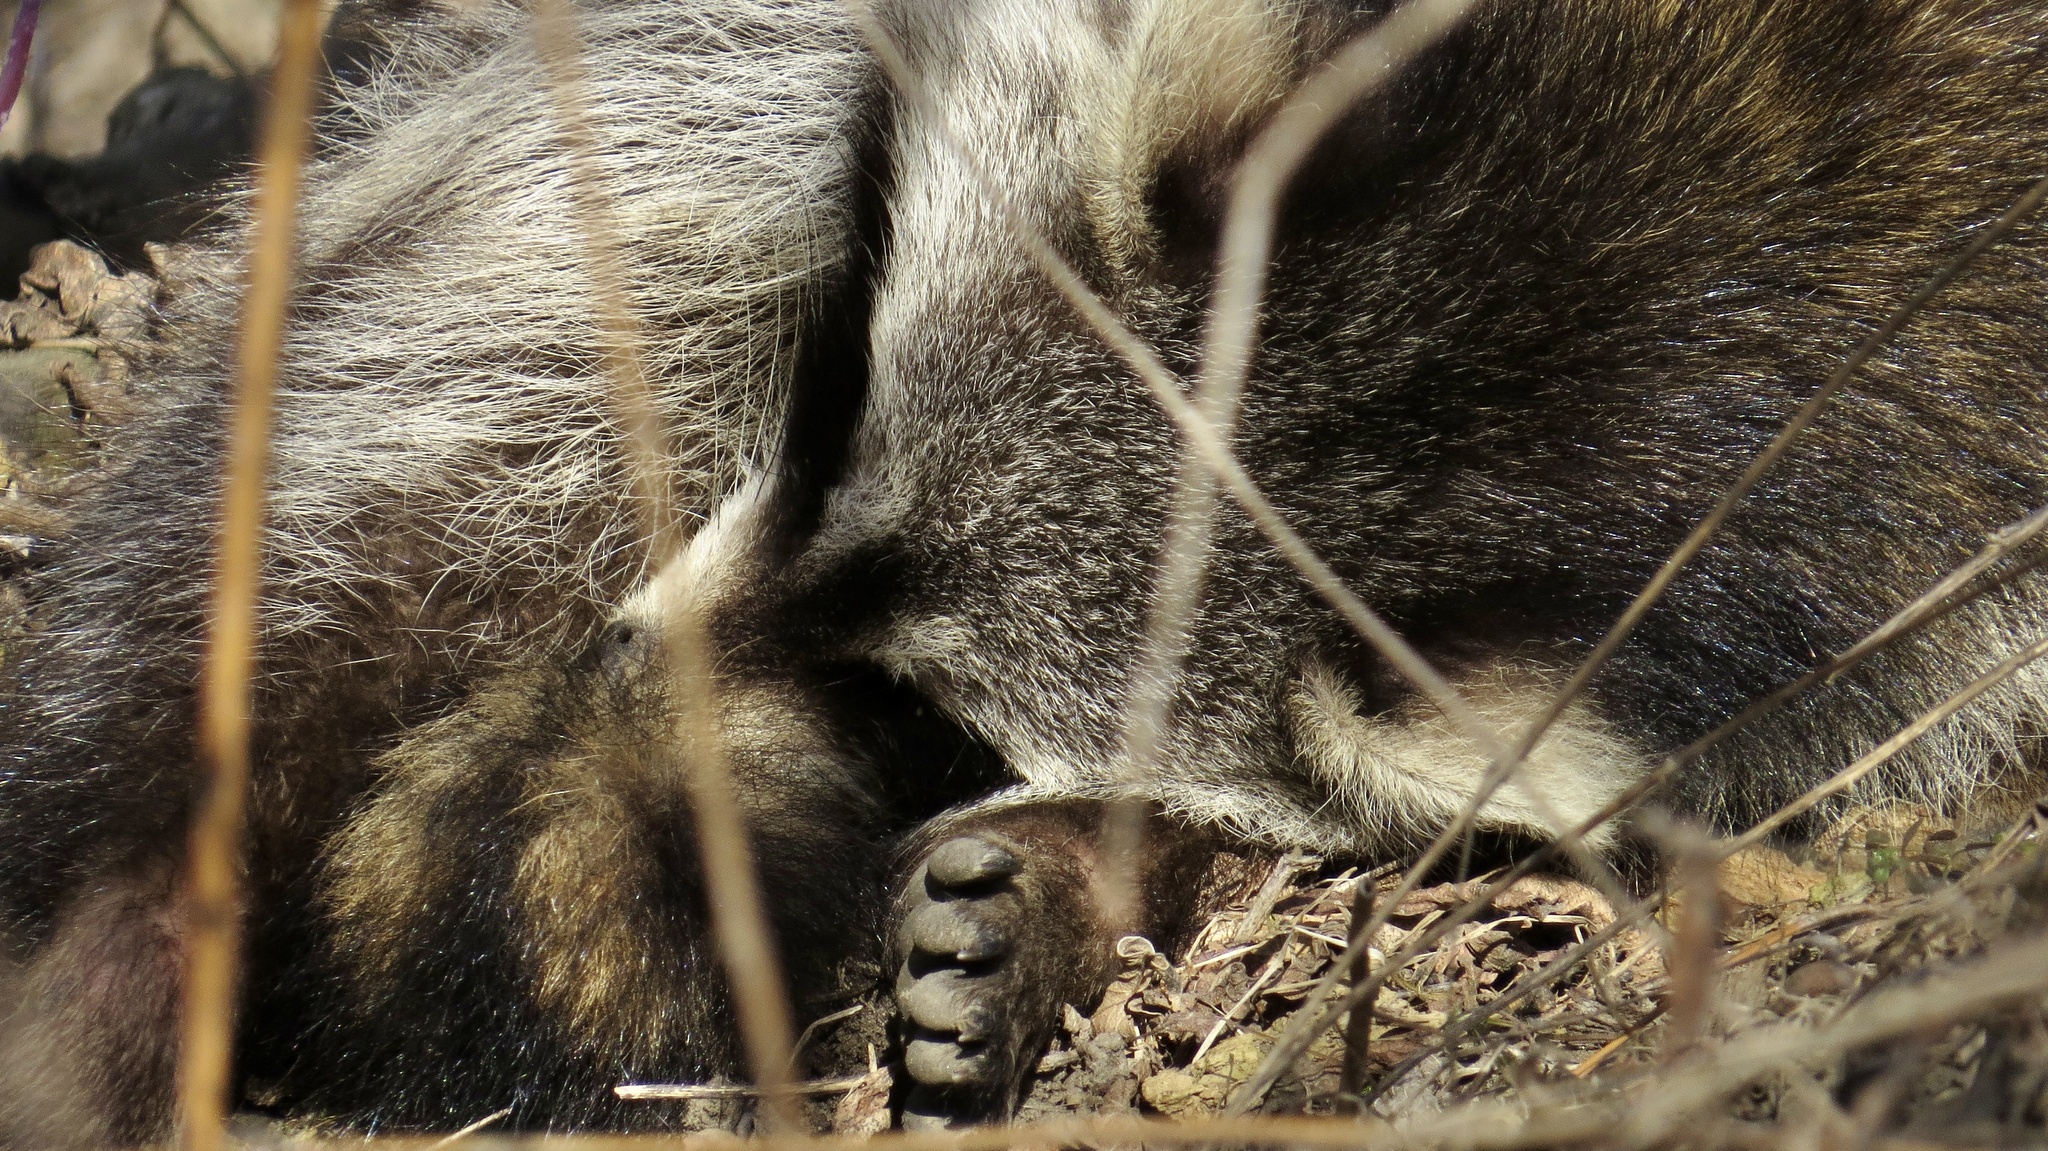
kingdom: Animalia
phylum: Chordata
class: Mammalia
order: Carnivora
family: Procyonidae
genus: Procyon
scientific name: Procyon lotor
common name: Raccoon
